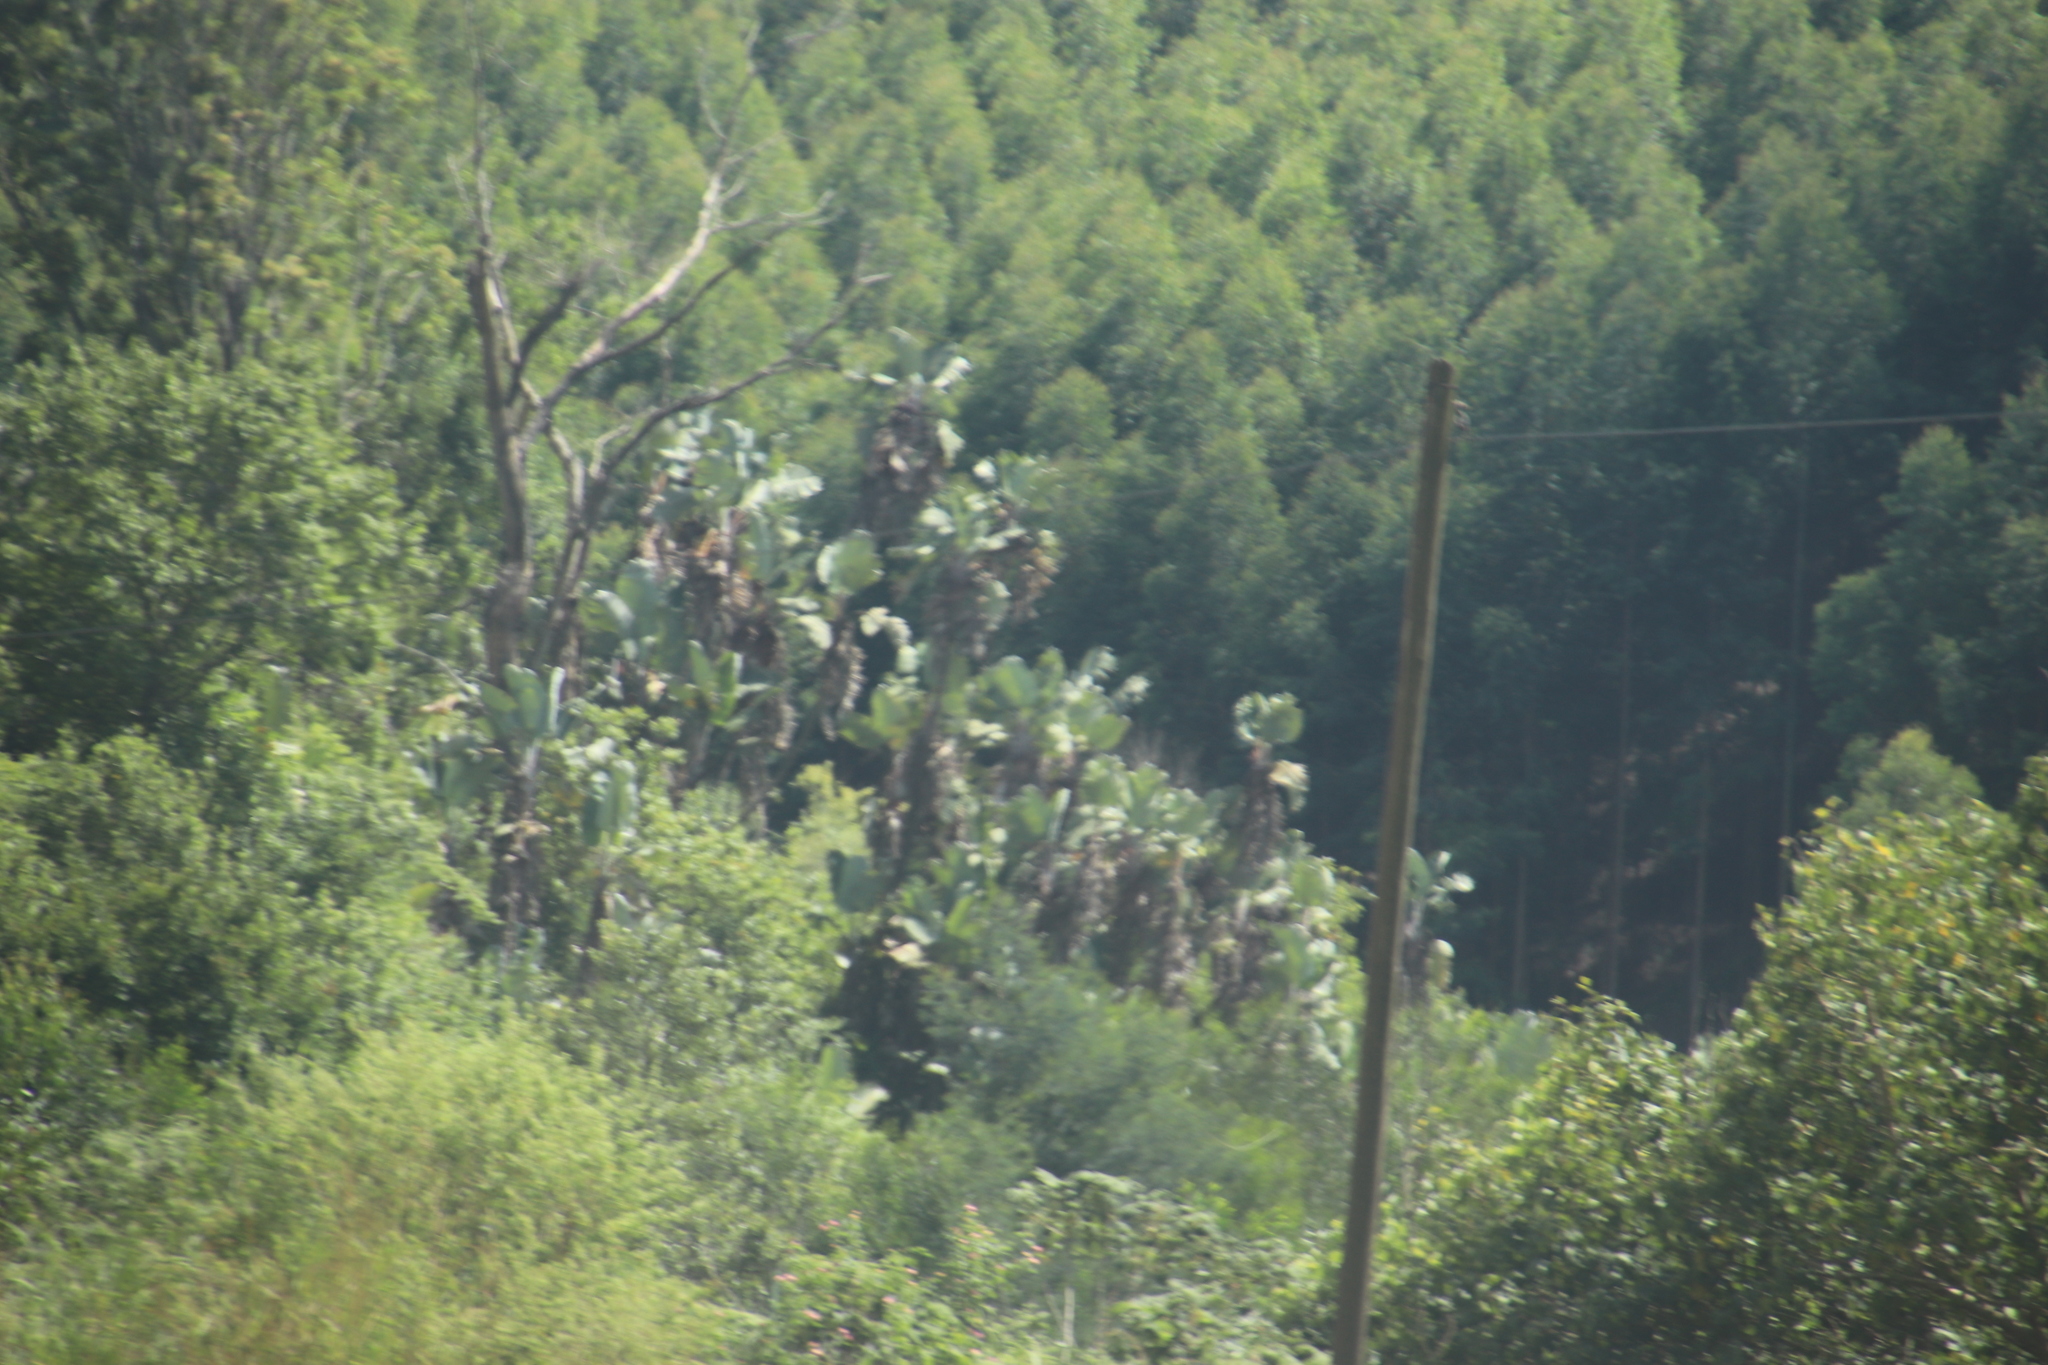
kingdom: Plantae
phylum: Tracheophyta
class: Liliopsida
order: Zingiberales
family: Strelitziaceae
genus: Strelitzia
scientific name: Strelitzia caudata
